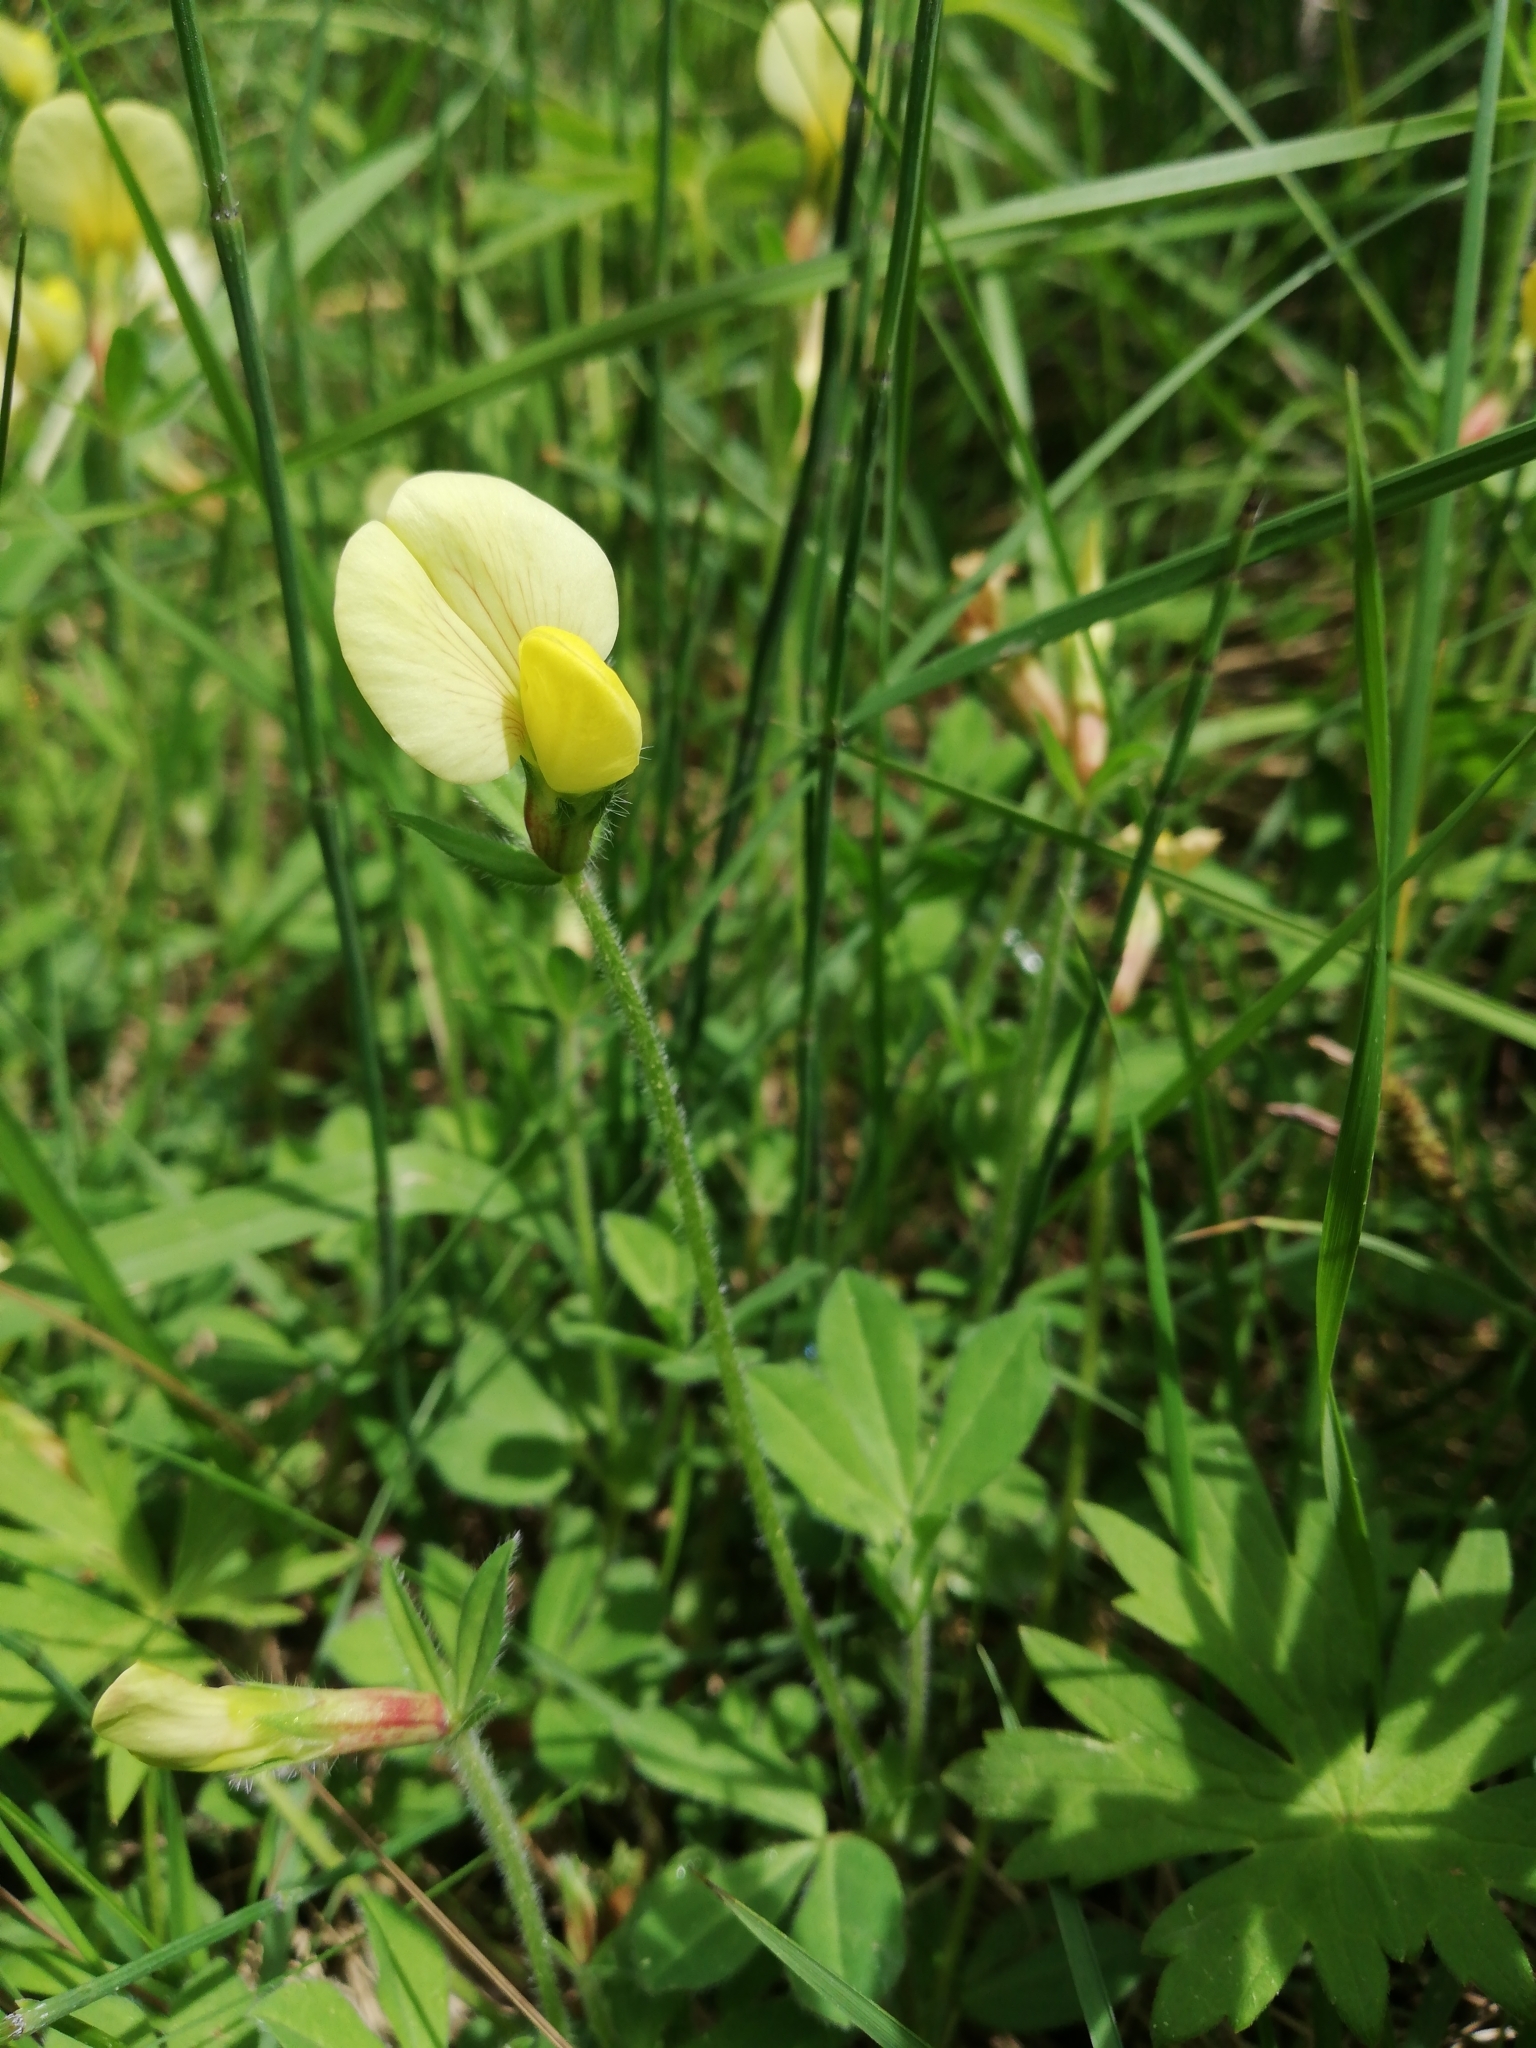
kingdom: Plantae
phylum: Tracheophyta
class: Magnoliopsida
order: Fabales
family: Fabaceae
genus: Lotus
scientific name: Lotus maritimus
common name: Dragon's-teeth
